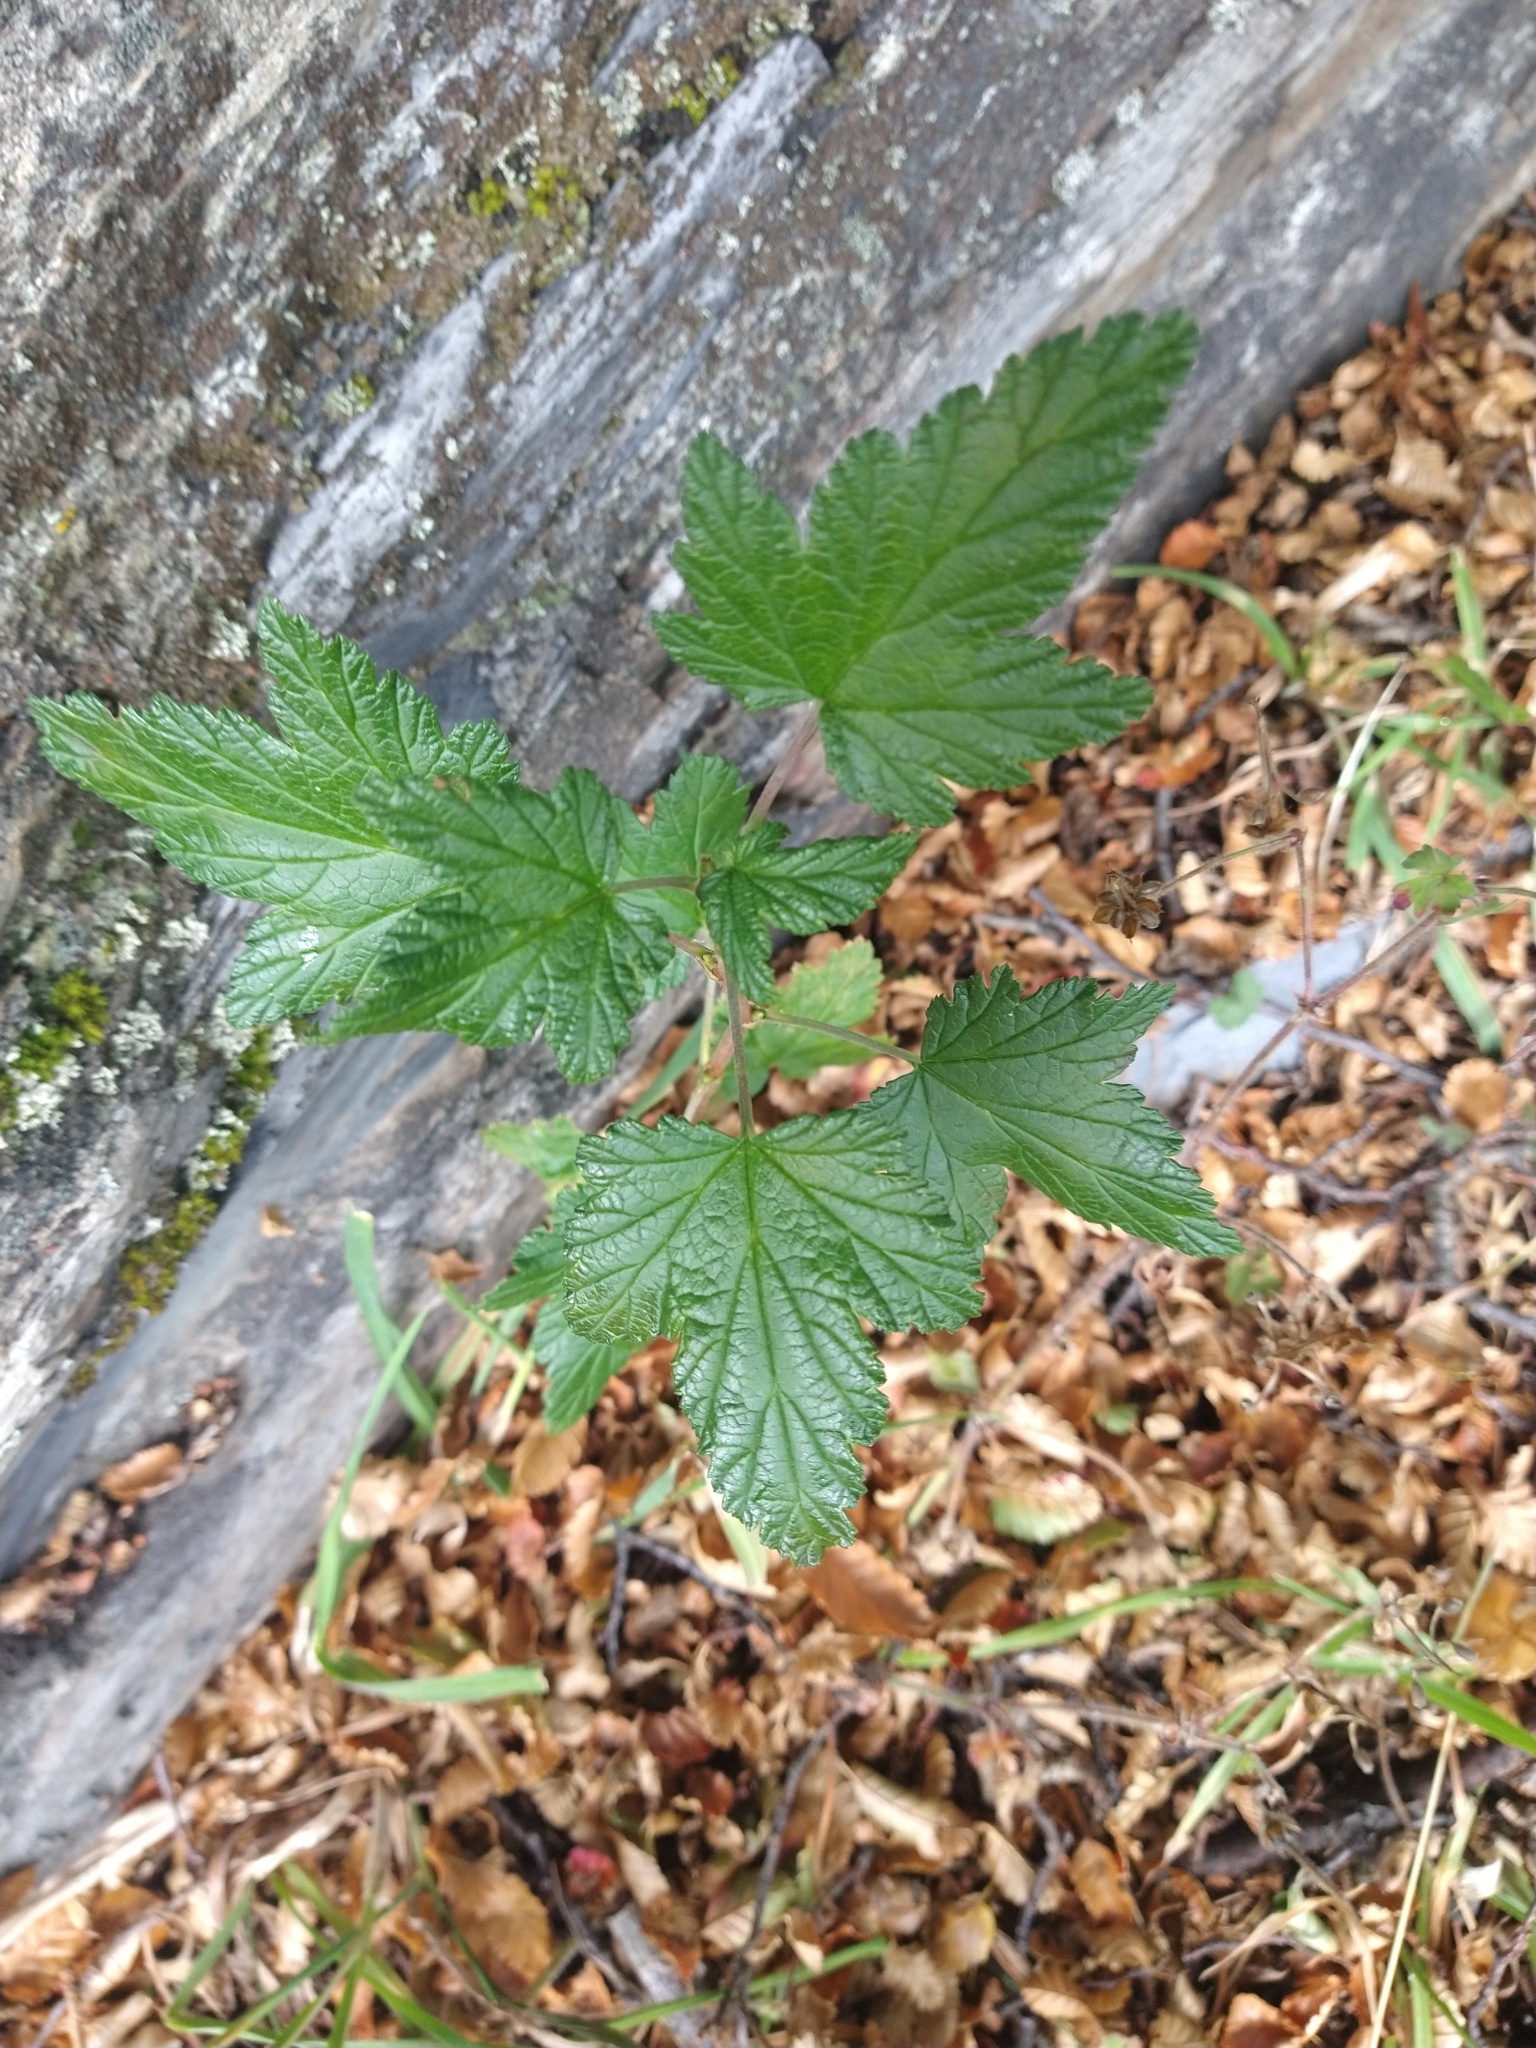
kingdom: Plantae
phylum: Tracheophyta
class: Magnoliopsida
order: Saxifragales
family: Grossulariaceae
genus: Ribes
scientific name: Ribes magellanicum
